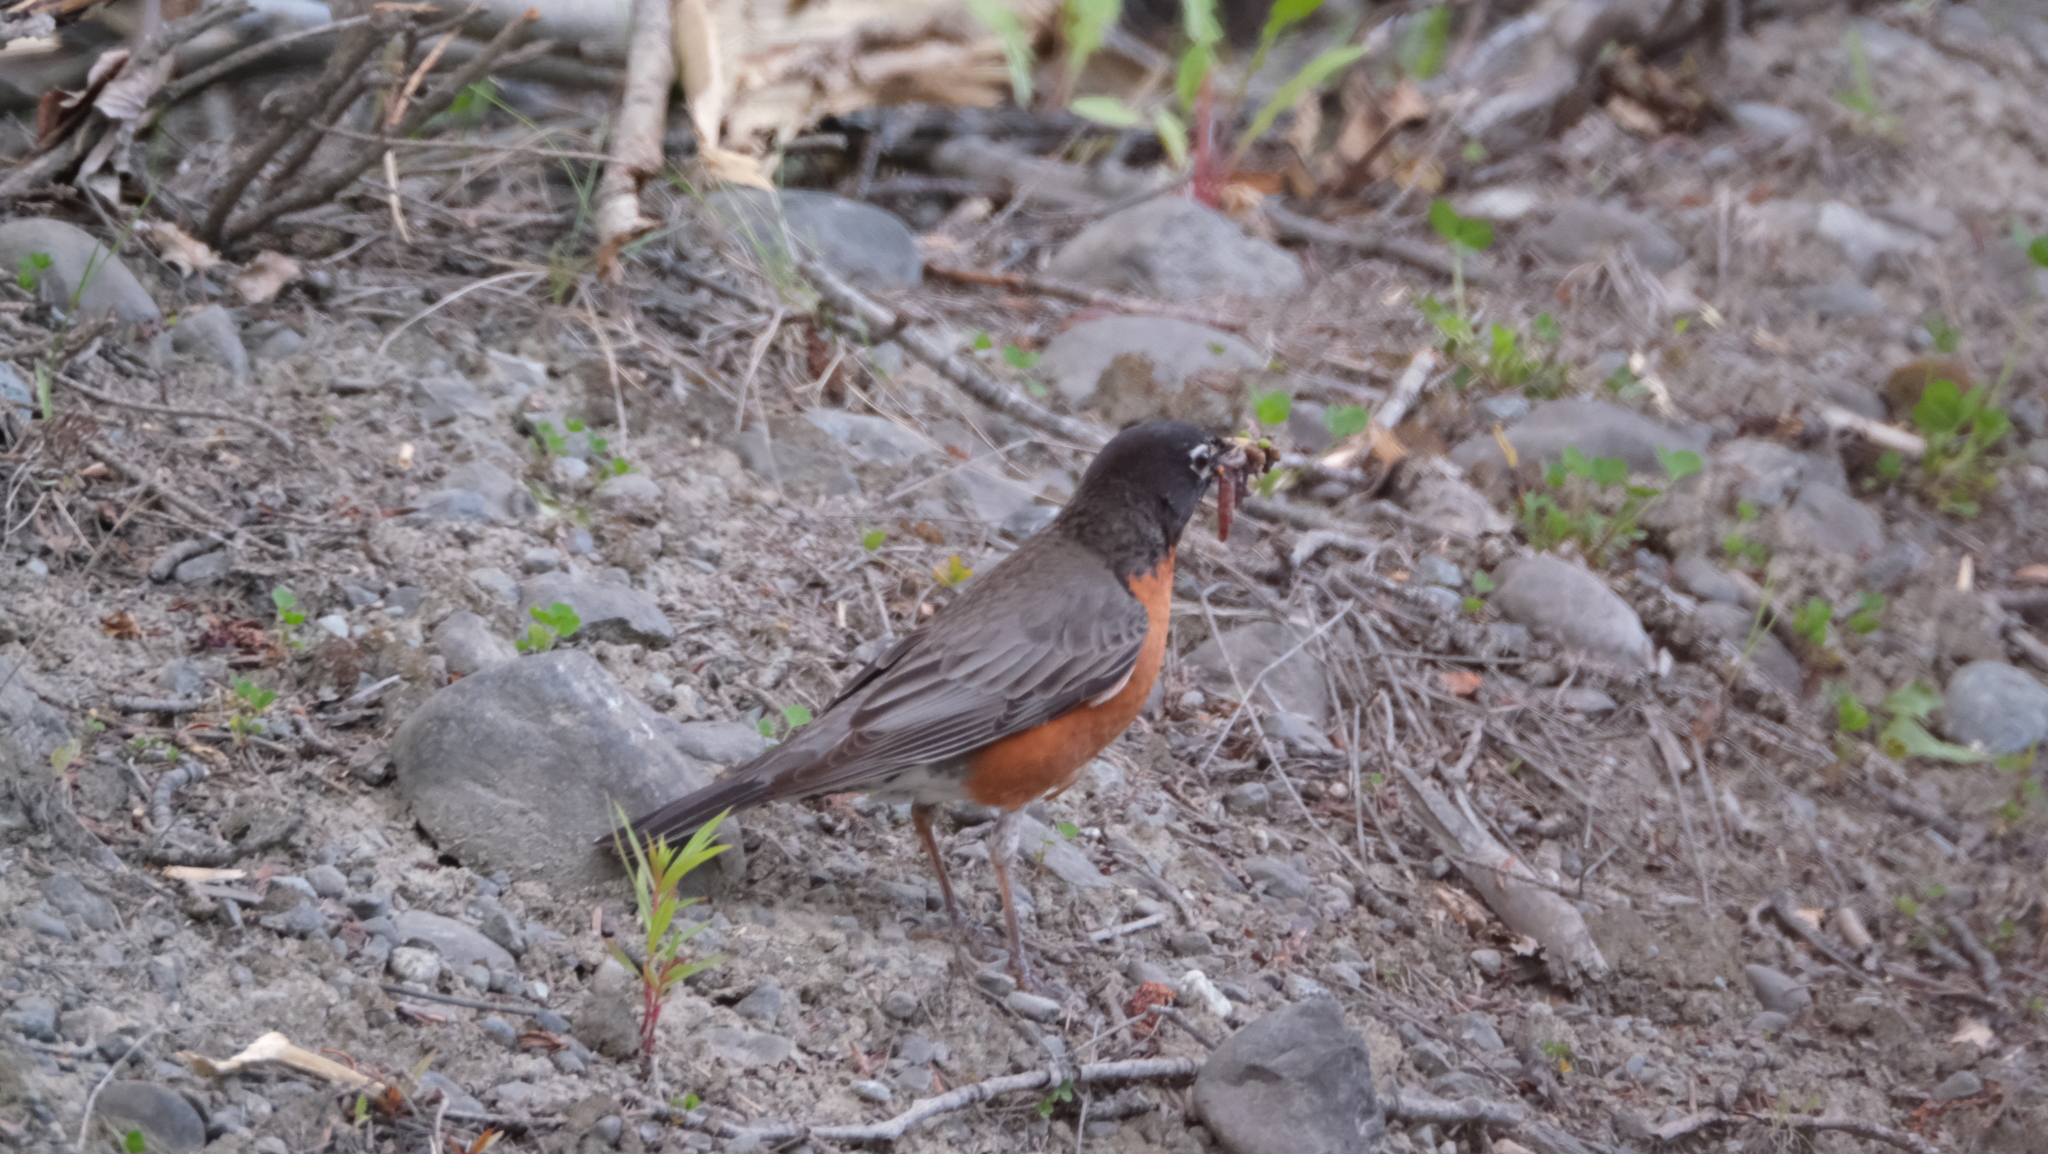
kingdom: Animalia
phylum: Chordata
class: Aves
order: Passeriformes
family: Turdidae
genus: Turdus
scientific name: Turdus migratorius
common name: American robin
